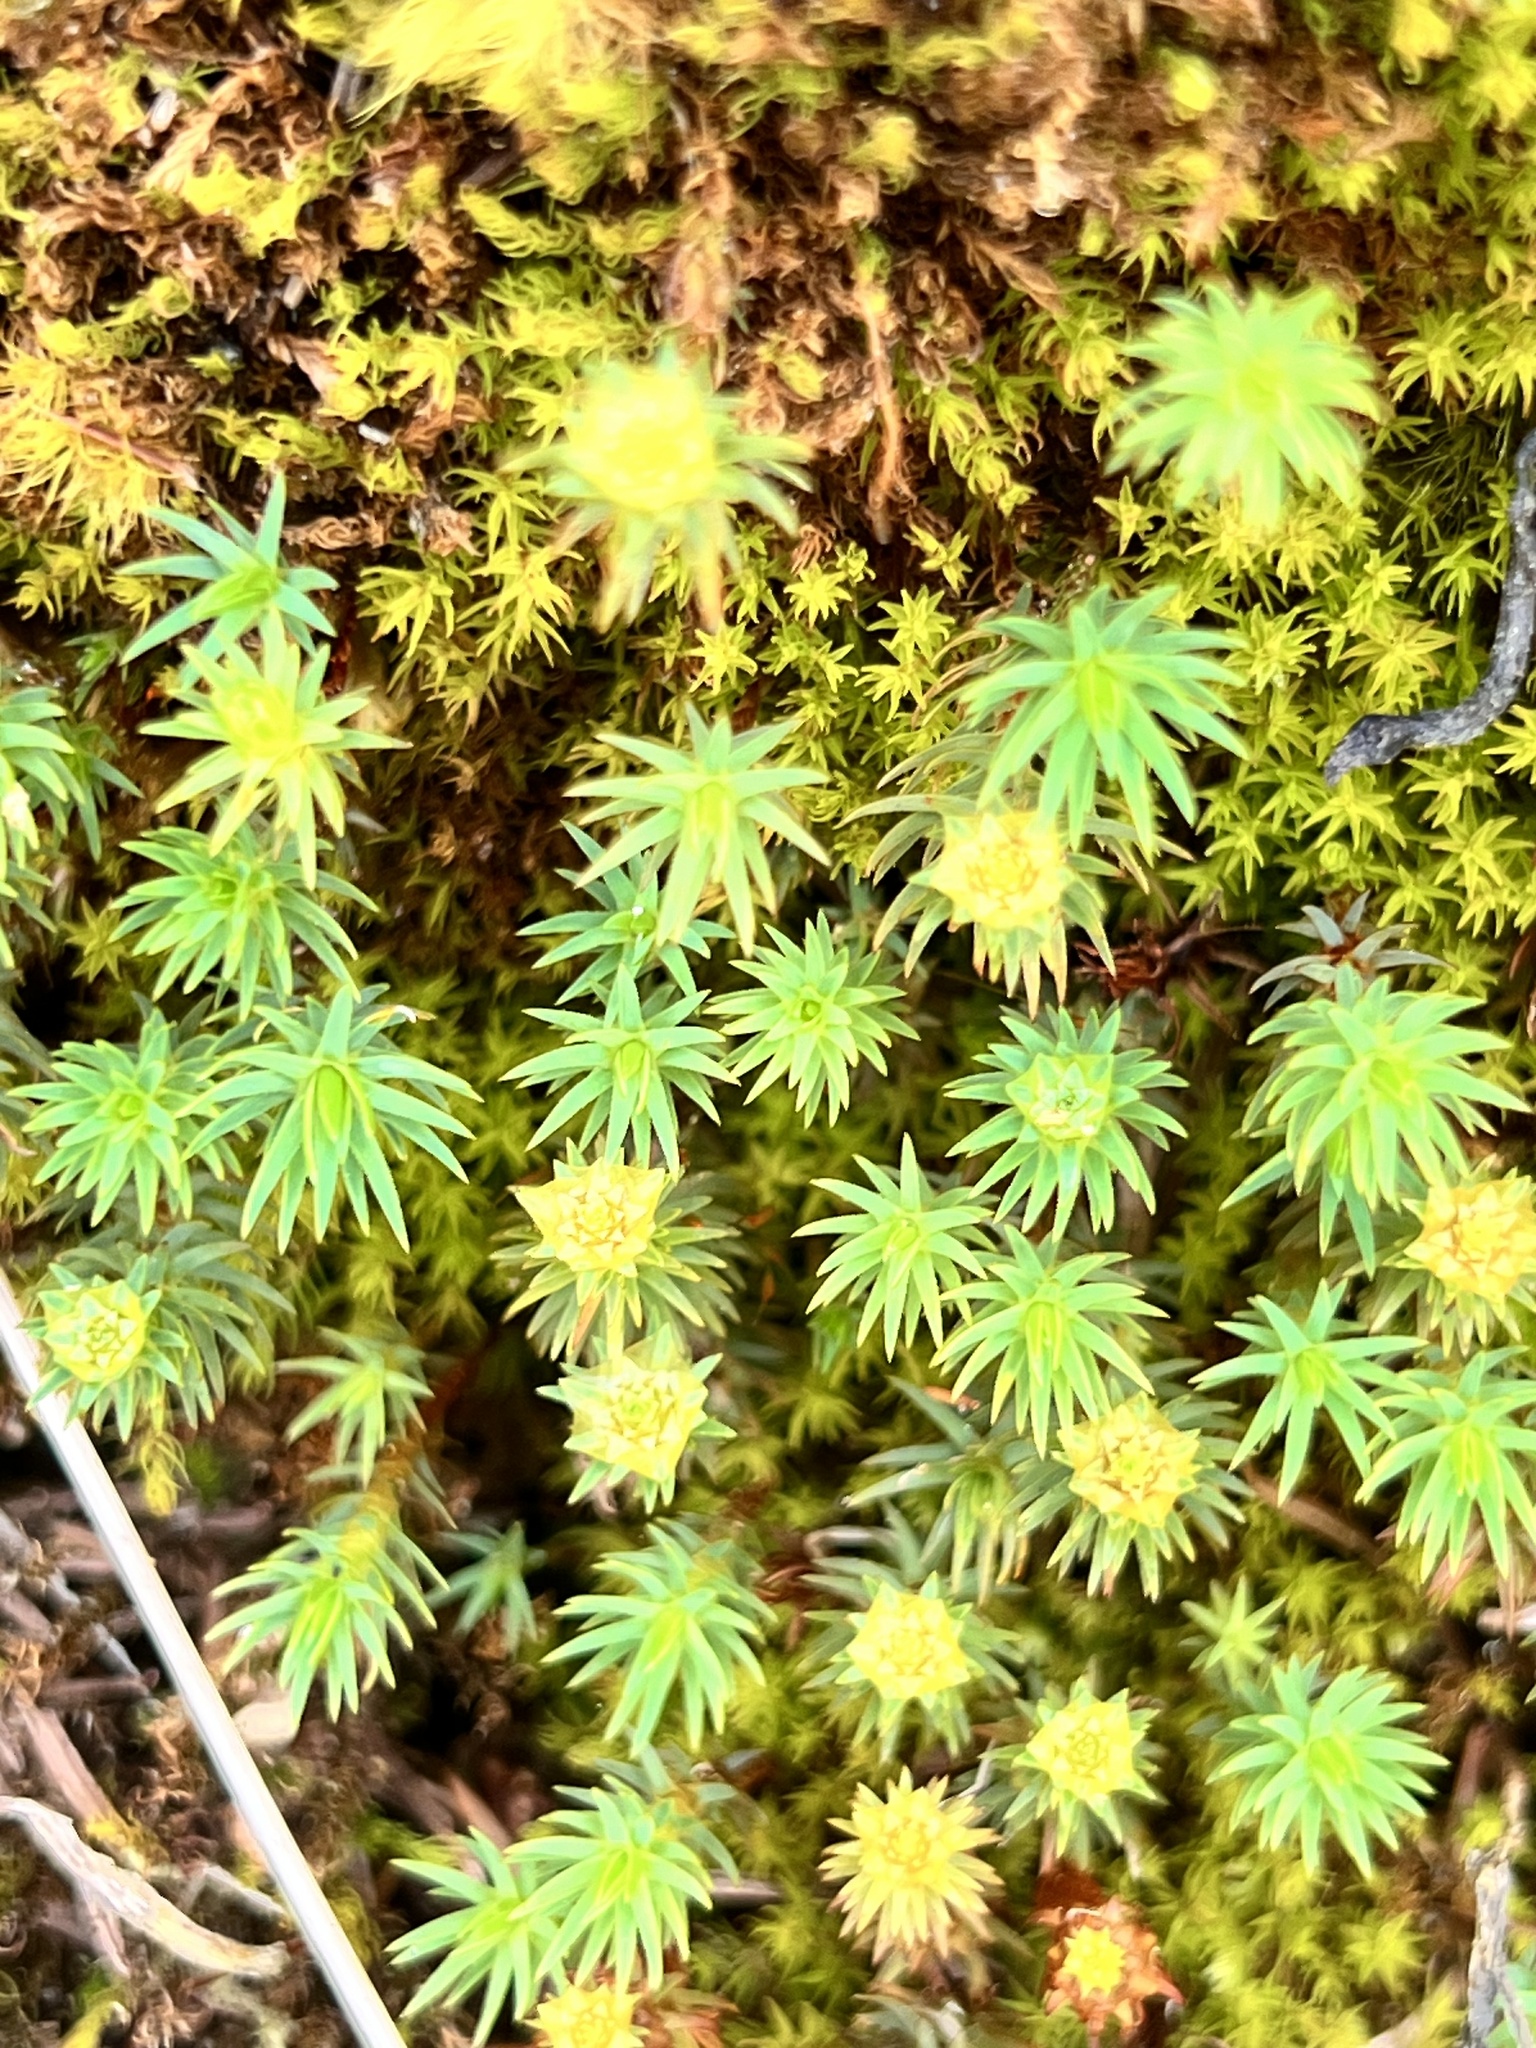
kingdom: Plantae
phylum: Bryophyta
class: Polytrichopsida
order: Polytrichales
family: Polytrichaceae
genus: Polytrichadelphus
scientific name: Polytrichadelphus magellanicus
